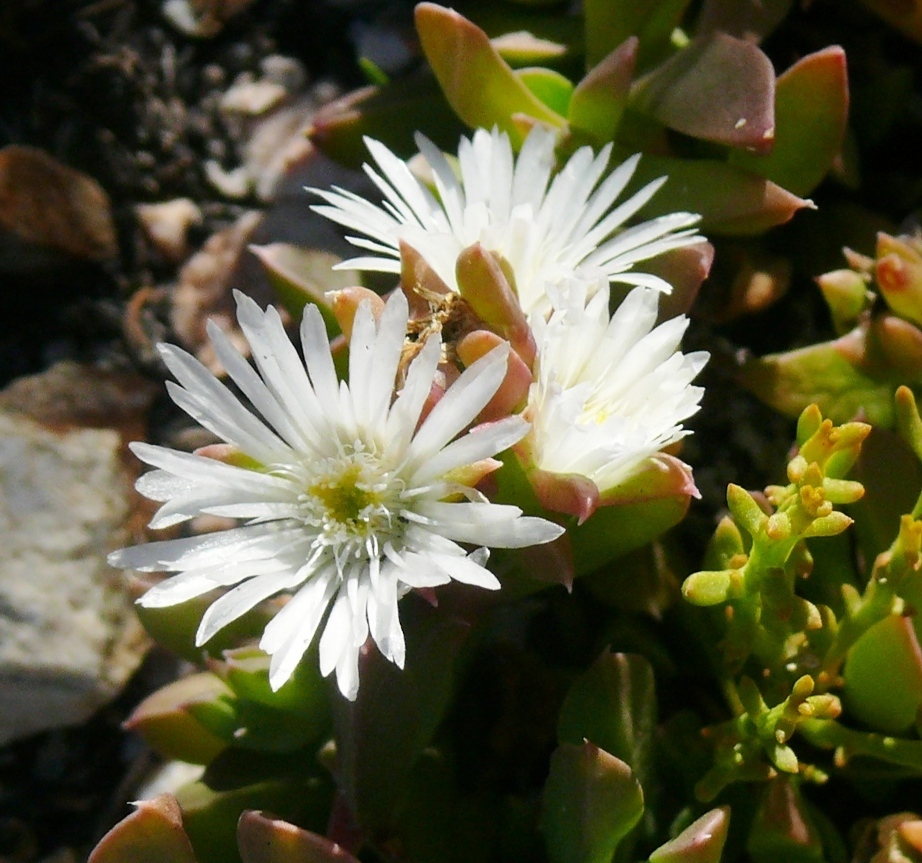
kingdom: Plantae
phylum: Tracheophyta
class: Magnoliopsida
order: Caryophyllales
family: Aizoaceae
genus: Delosperma
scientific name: Delosperma patersoniae
